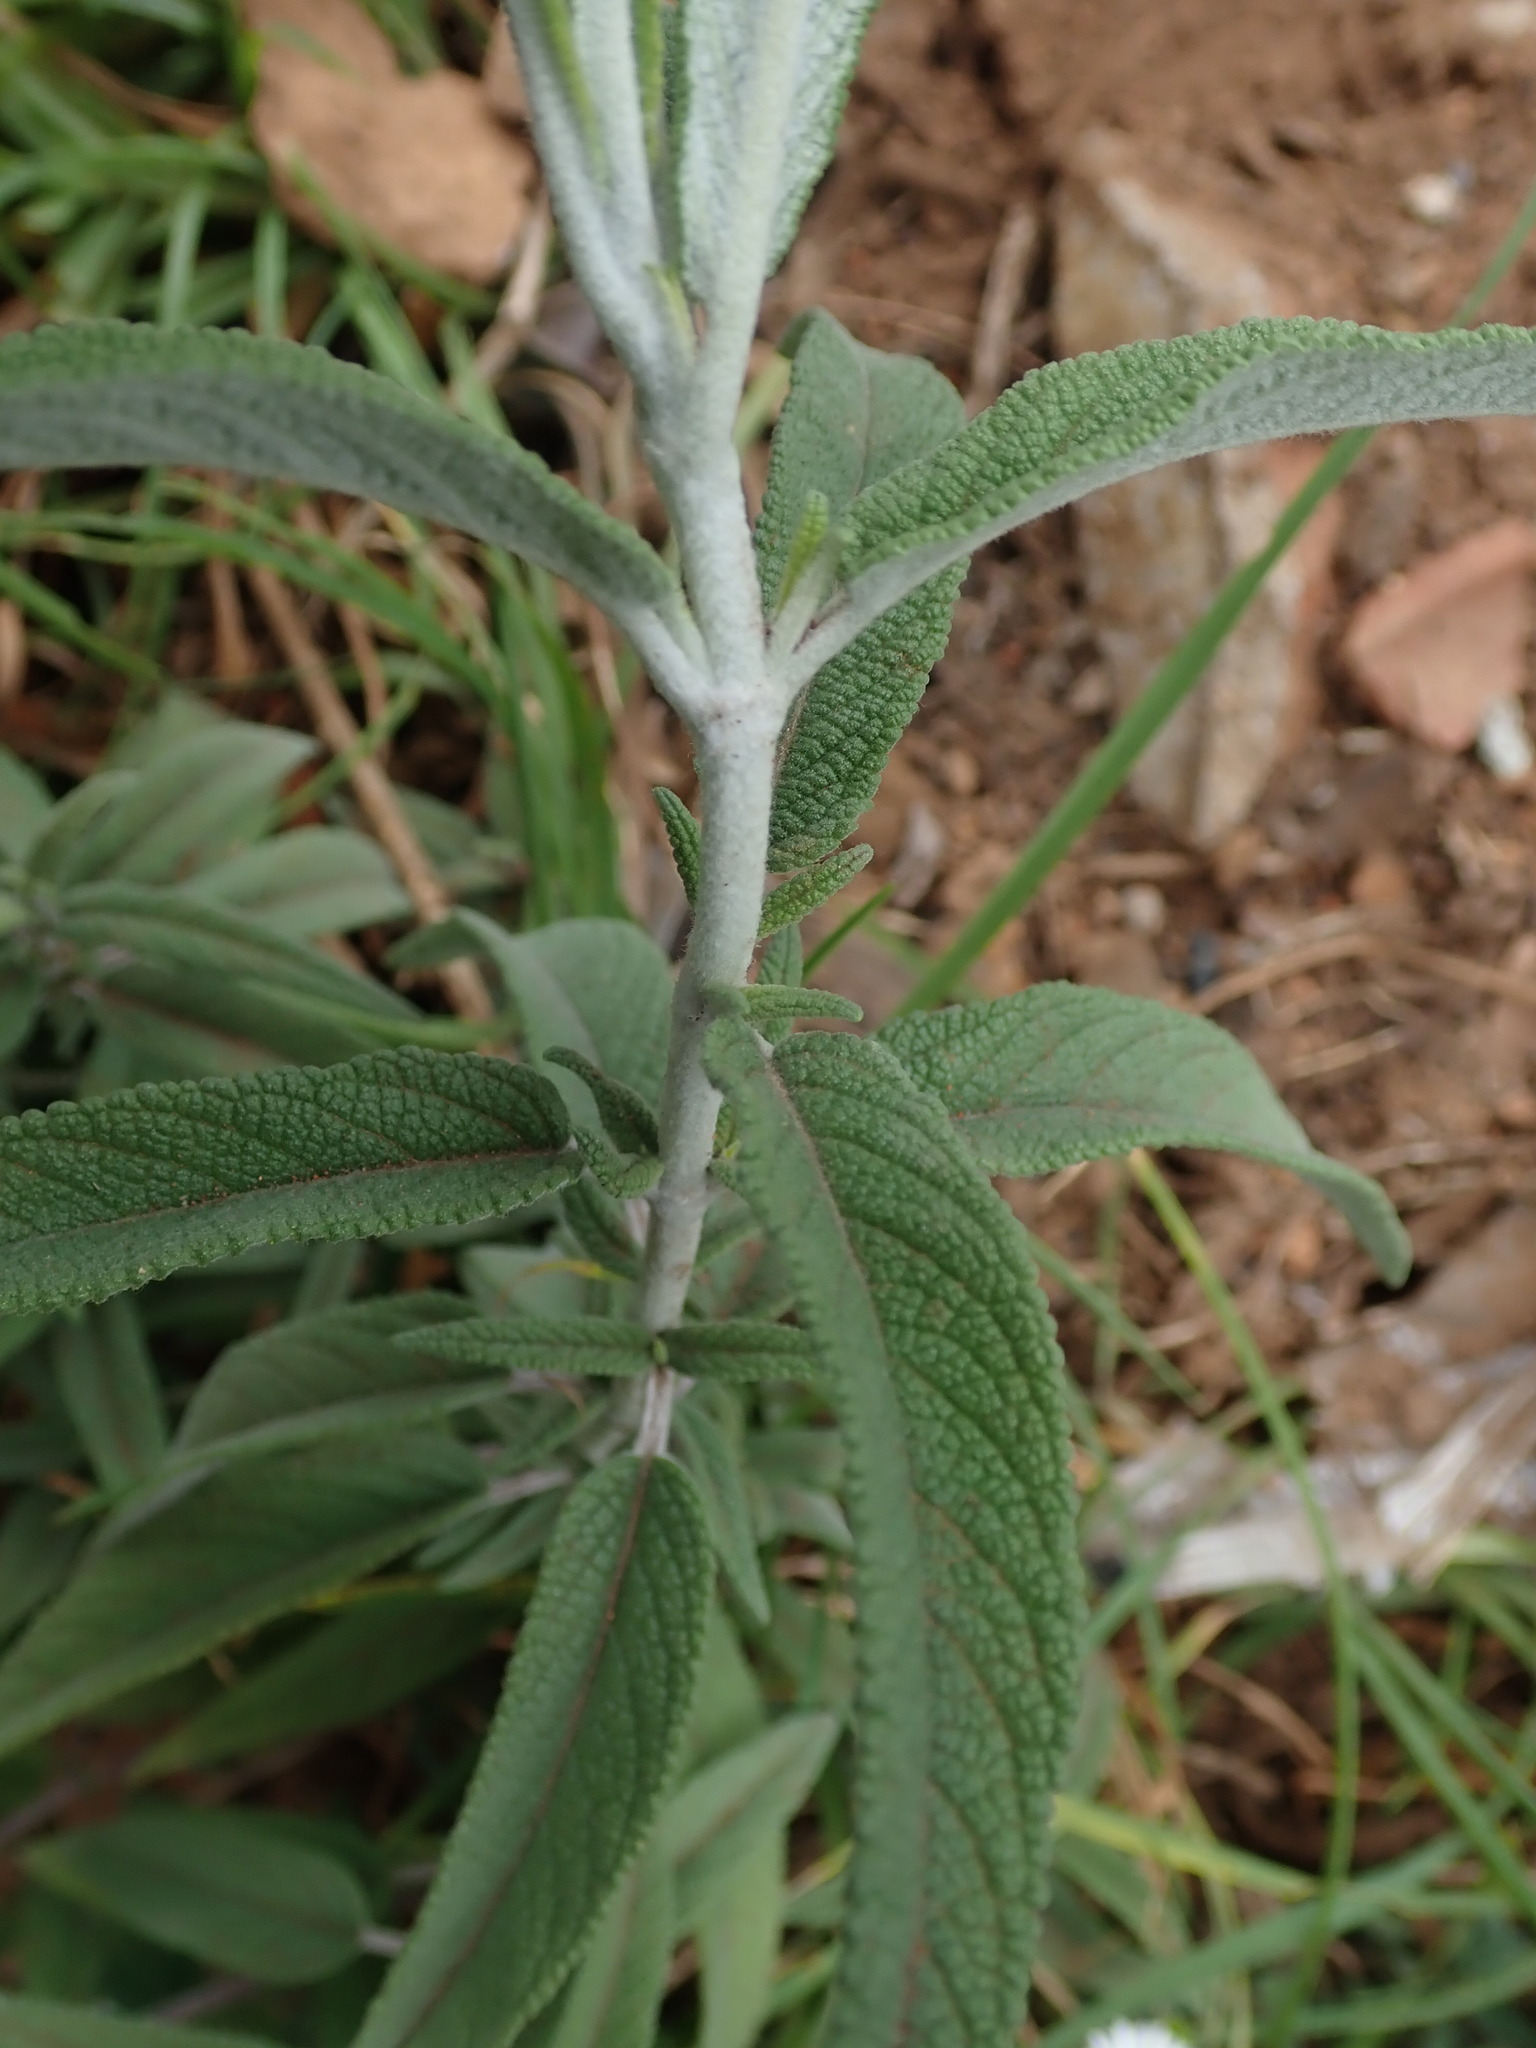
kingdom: Plantae
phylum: Tracheophyta
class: Magnoliopsida
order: Lamiales
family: Lamiaceae
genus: Salvia
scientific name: Salvia leucantha
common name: Mexican bush sage
